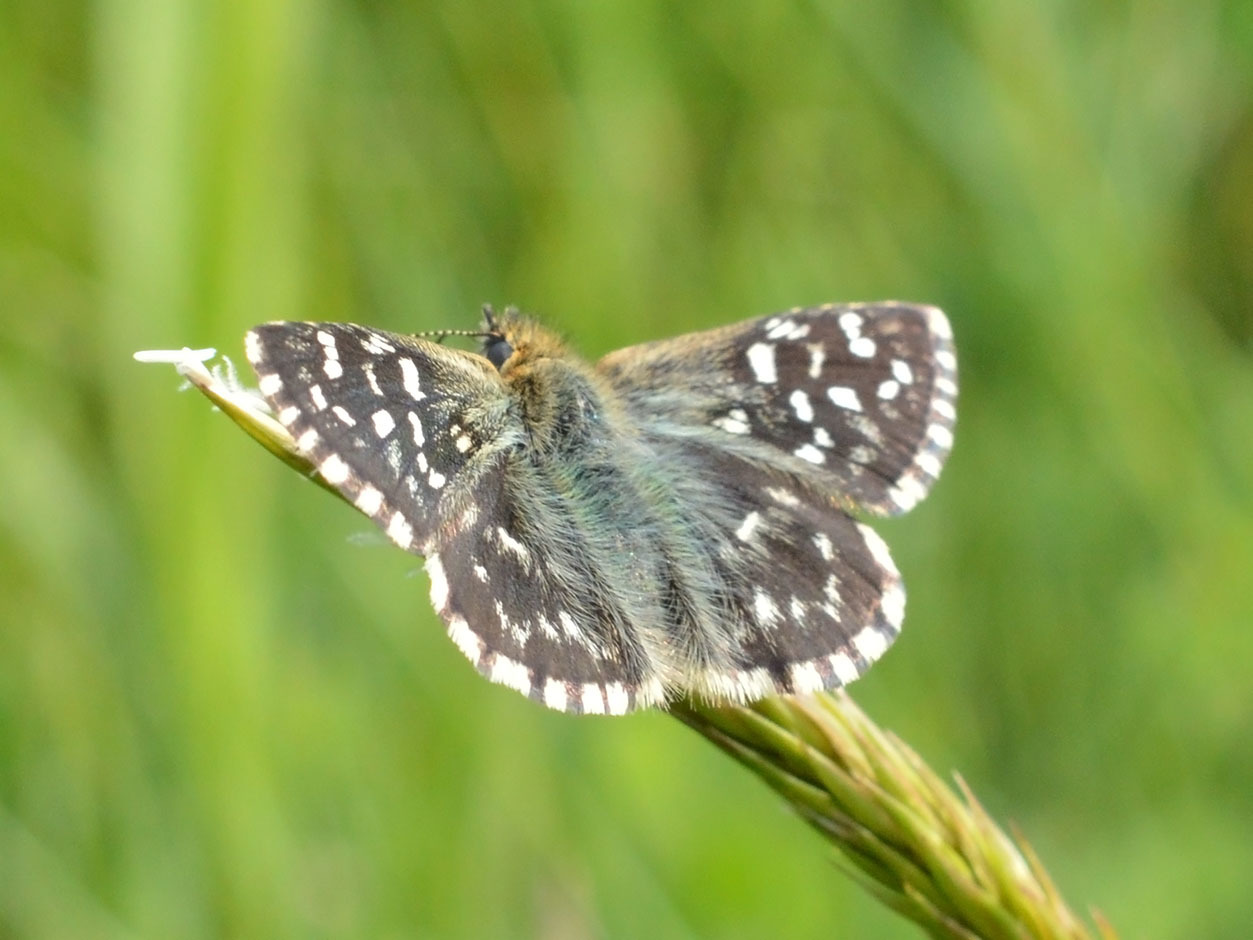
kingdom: Animalia
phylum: Arthropoda
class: Insecta
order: Lepidoptera
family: Hesperiidae
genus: Pyrgus
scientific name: Pyrgus malvae
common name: Grizzled skipper
